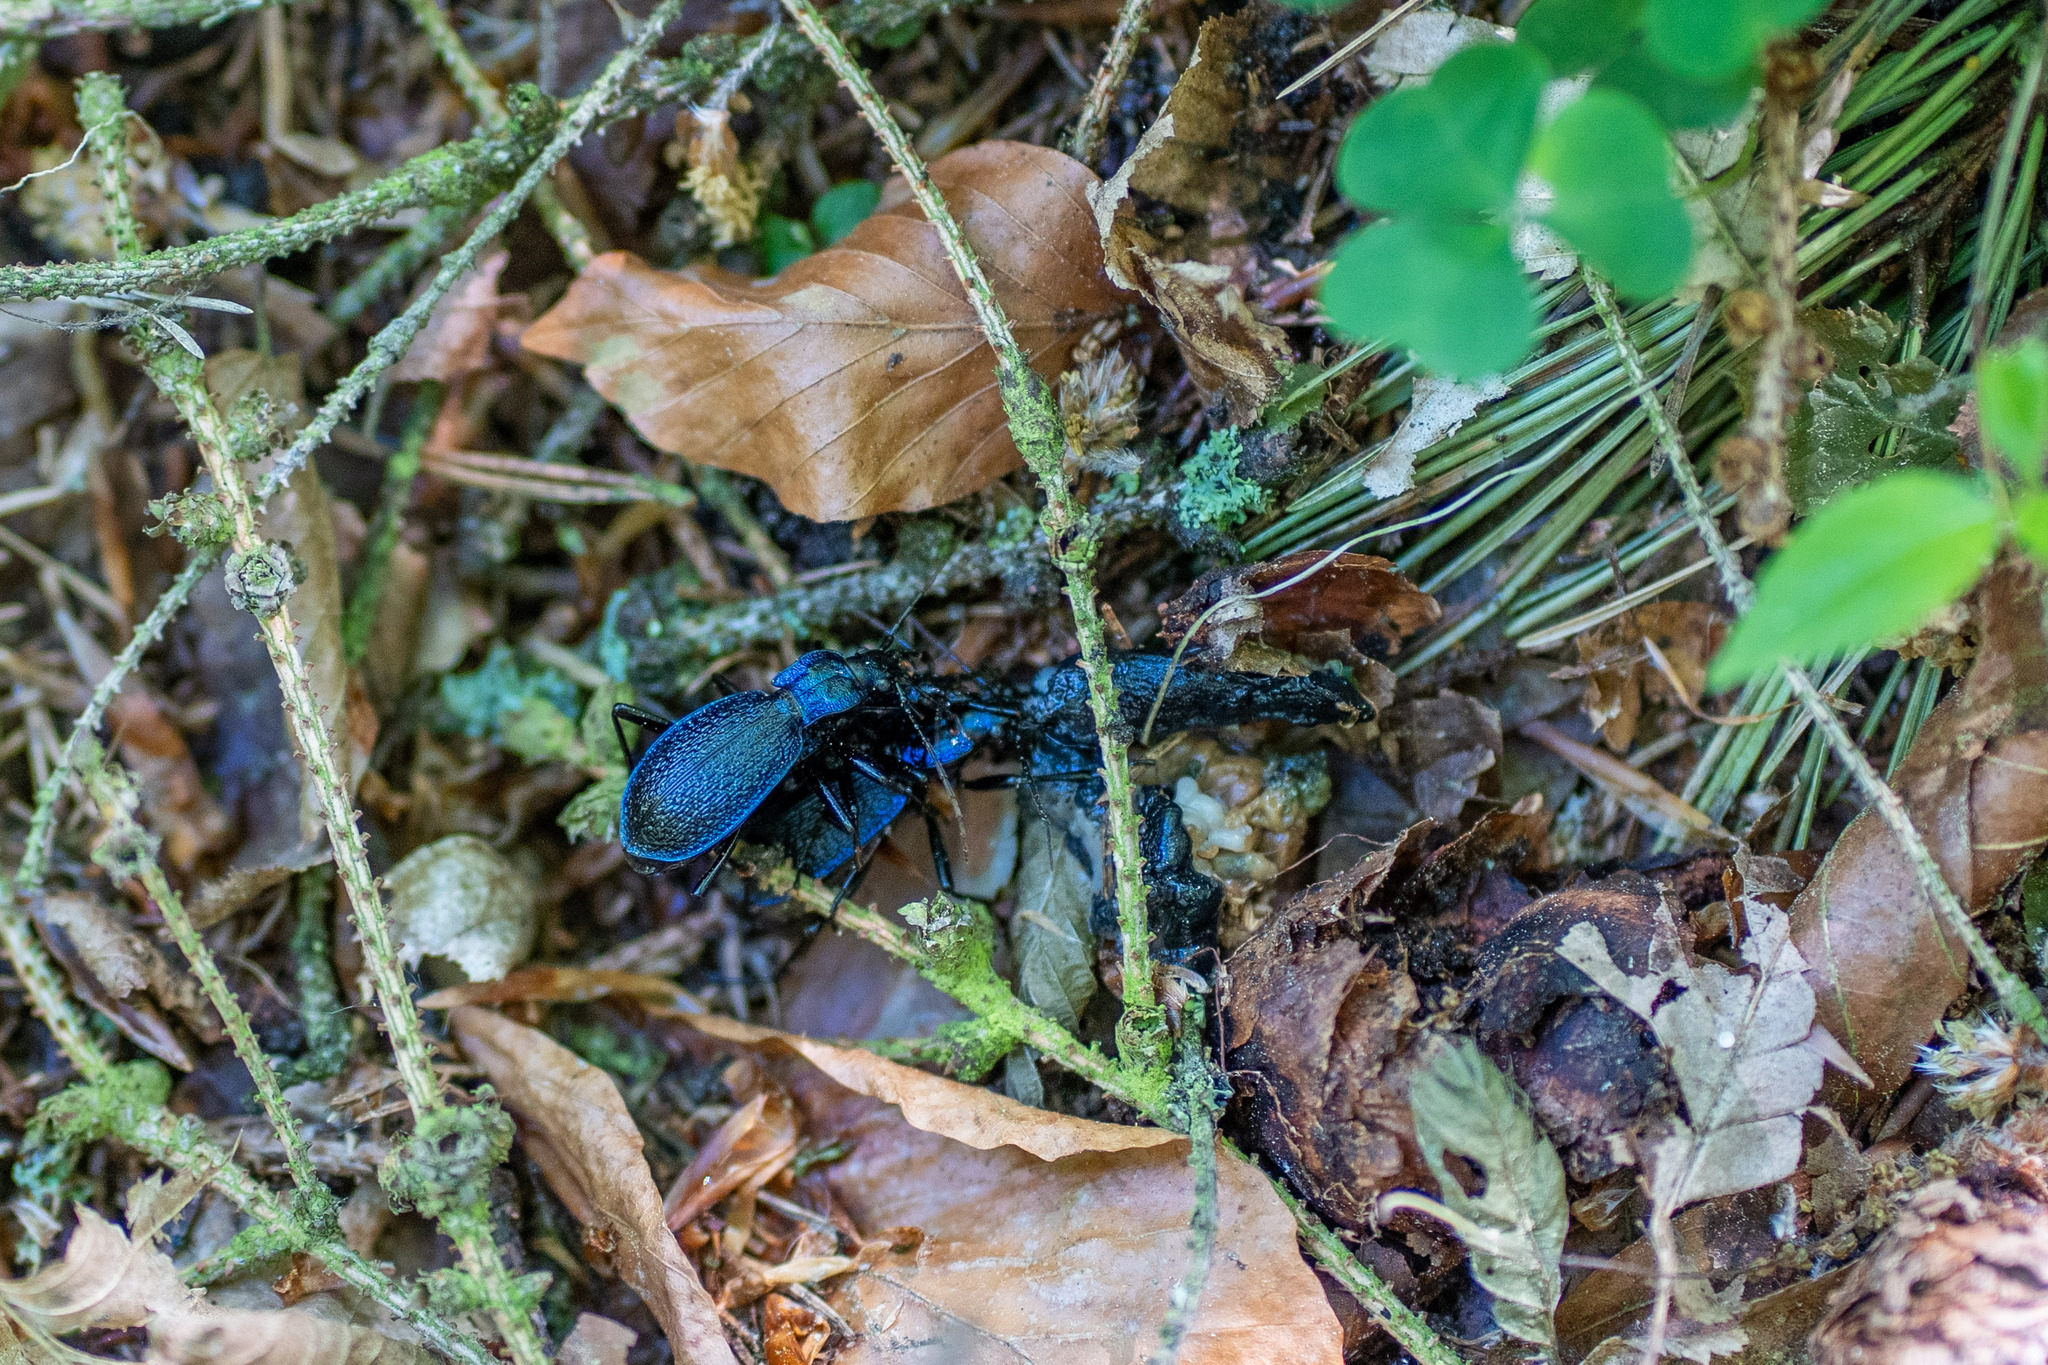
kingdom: Animalia
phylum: Arthropoda
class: Insecta
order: Coleoptera
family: Carabidae
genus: Carabus
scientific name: Carabus intricatus
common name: Blue ground beetle
